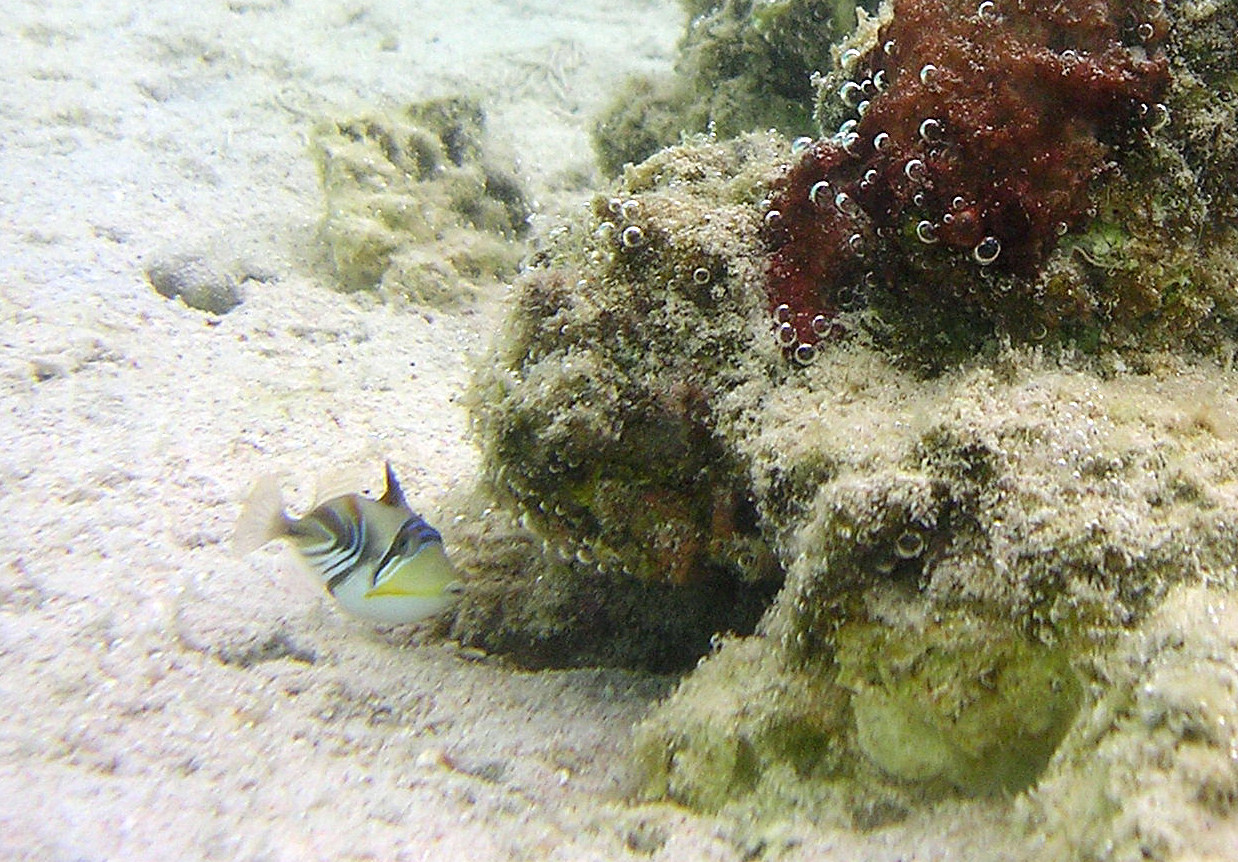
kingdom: Animalia
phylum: Chordata
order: Tetraodontiformes
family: Balistidae
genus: Rhinecanthus
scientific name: Rhinecanthus aculeatus
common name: White-banded triggerfish
